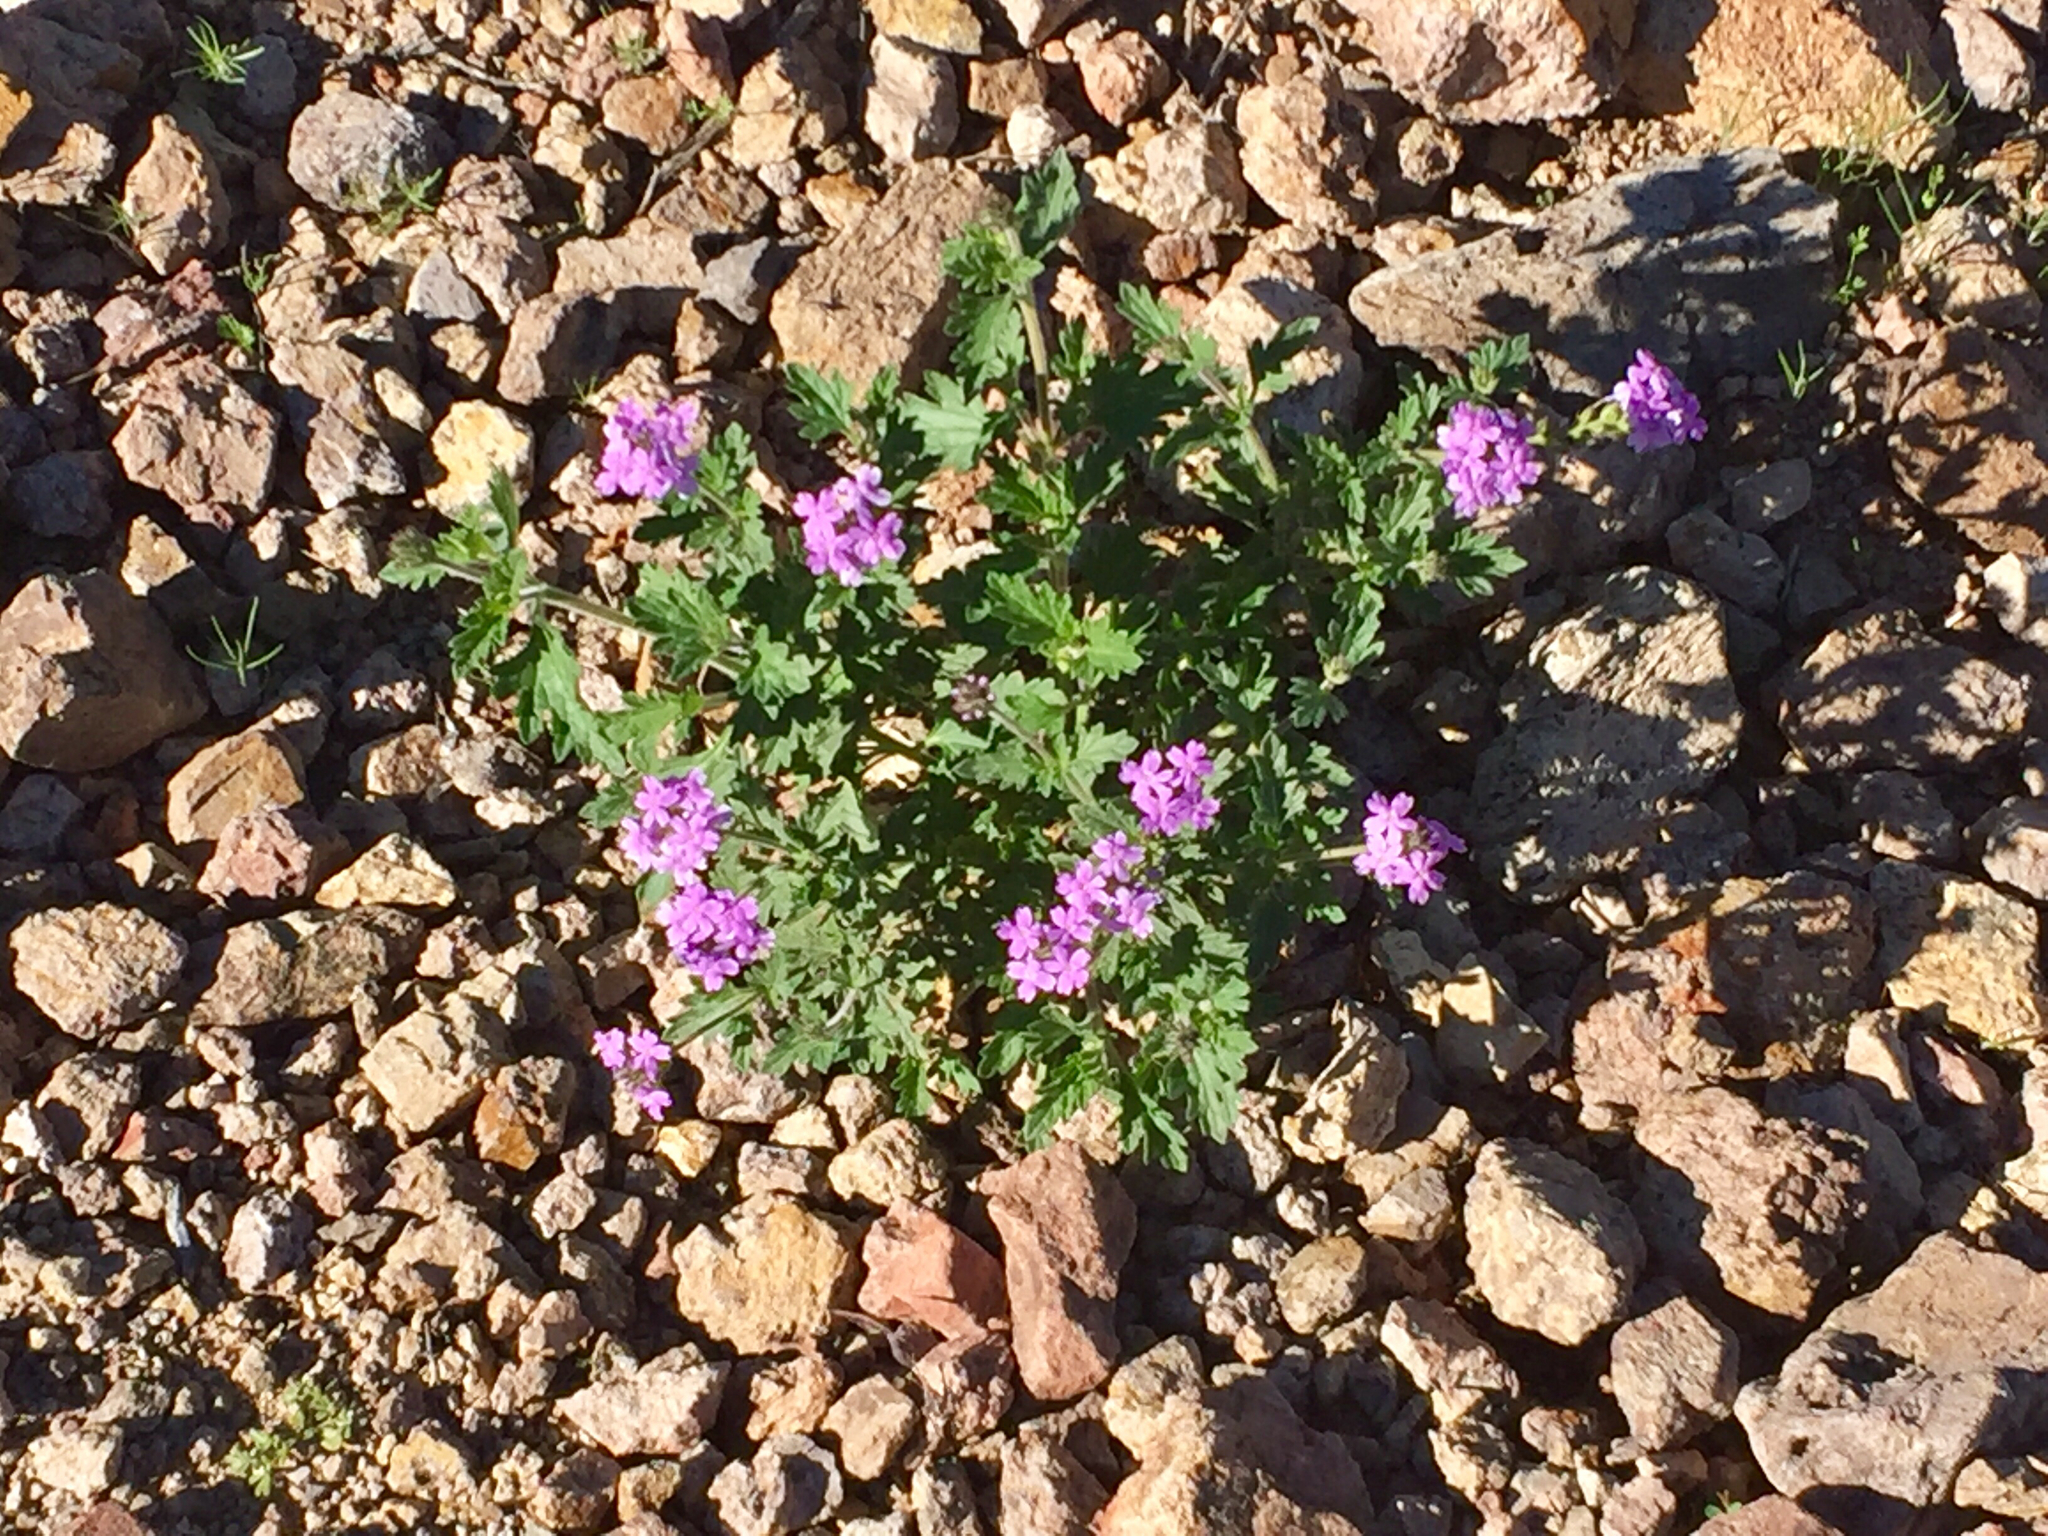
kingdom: Plantae
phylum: Tracheophyta
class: Magnoliopsida
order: Lamiales
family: Verbenaceae
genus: Verbena
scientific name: Verbena gooddingii
